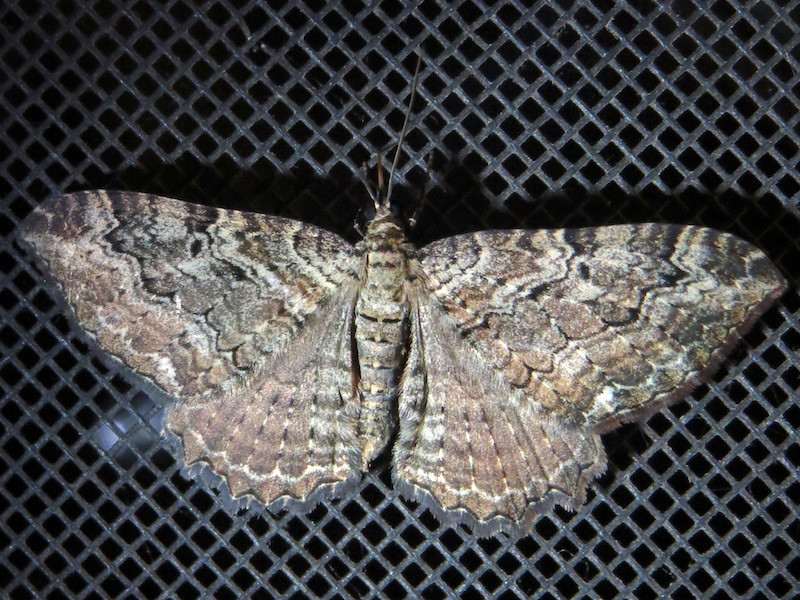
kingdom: Animalia
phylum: Arthropoda
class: Insecta
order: Lepidoptera
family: Geometridae
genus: Rheumaptera
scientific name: Rheumaptera
